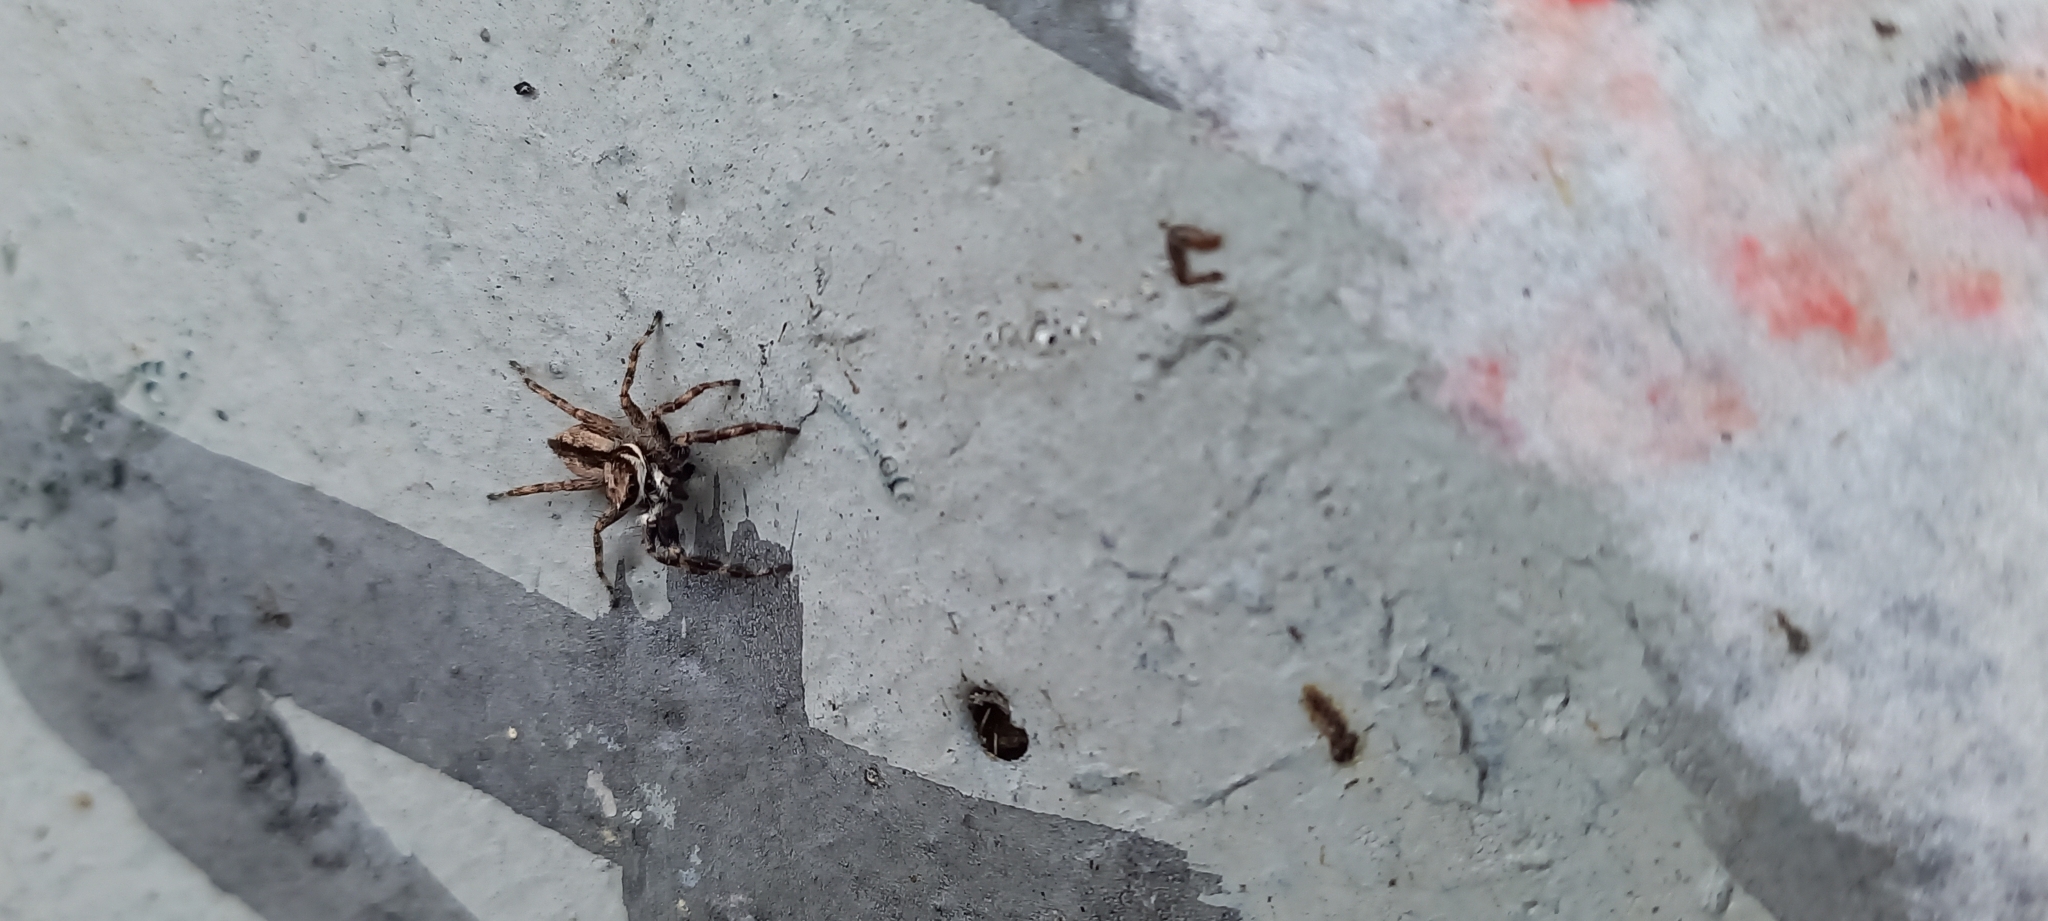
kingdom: Animalia
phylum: Arthropoda
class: Arachnida
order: Araneae
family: Salticidae
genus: Menemerus
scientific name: Menemerus bivittatus
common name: Gray wall jumper
